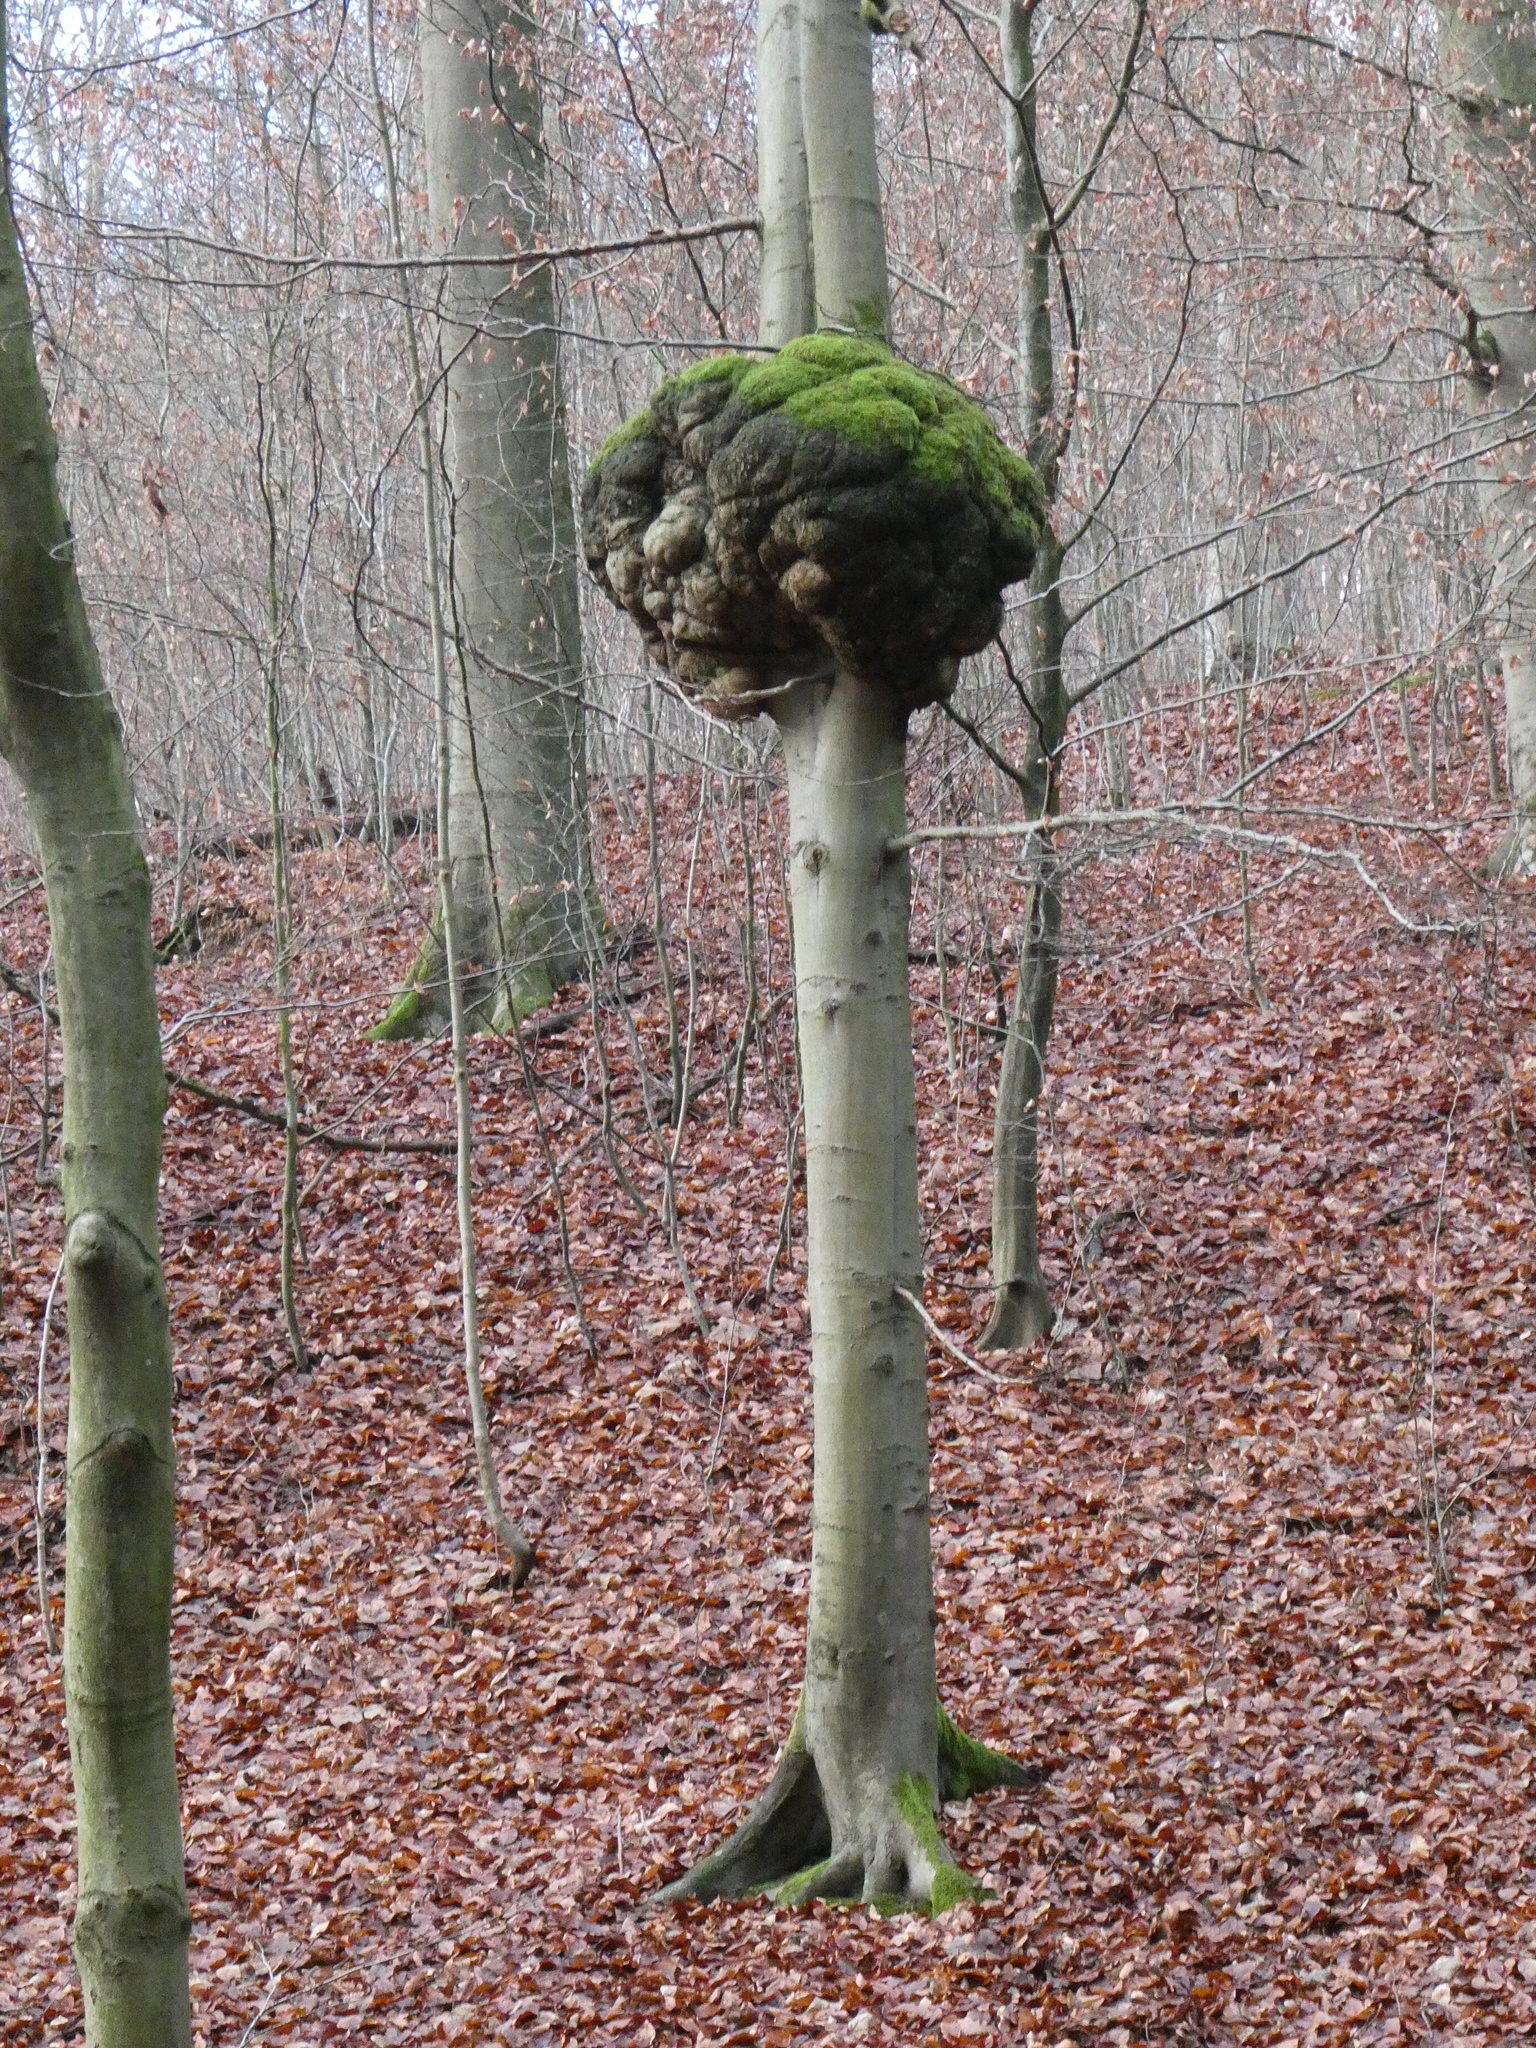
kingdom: Plantae
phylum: Tracheophyta
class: Magnoliopsida
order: Fagales
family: Fagaceae
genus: Fagus
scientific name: Fagus sylvatica
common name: Beech
